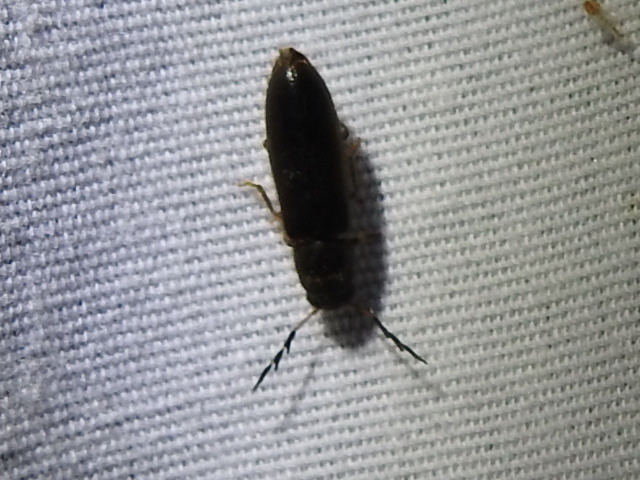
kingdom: Animalia
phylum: Arthropoda
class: Insecta
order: Coleoptera
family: Cleridae
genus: Neorthopleura
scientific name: Neorthopleura texana
